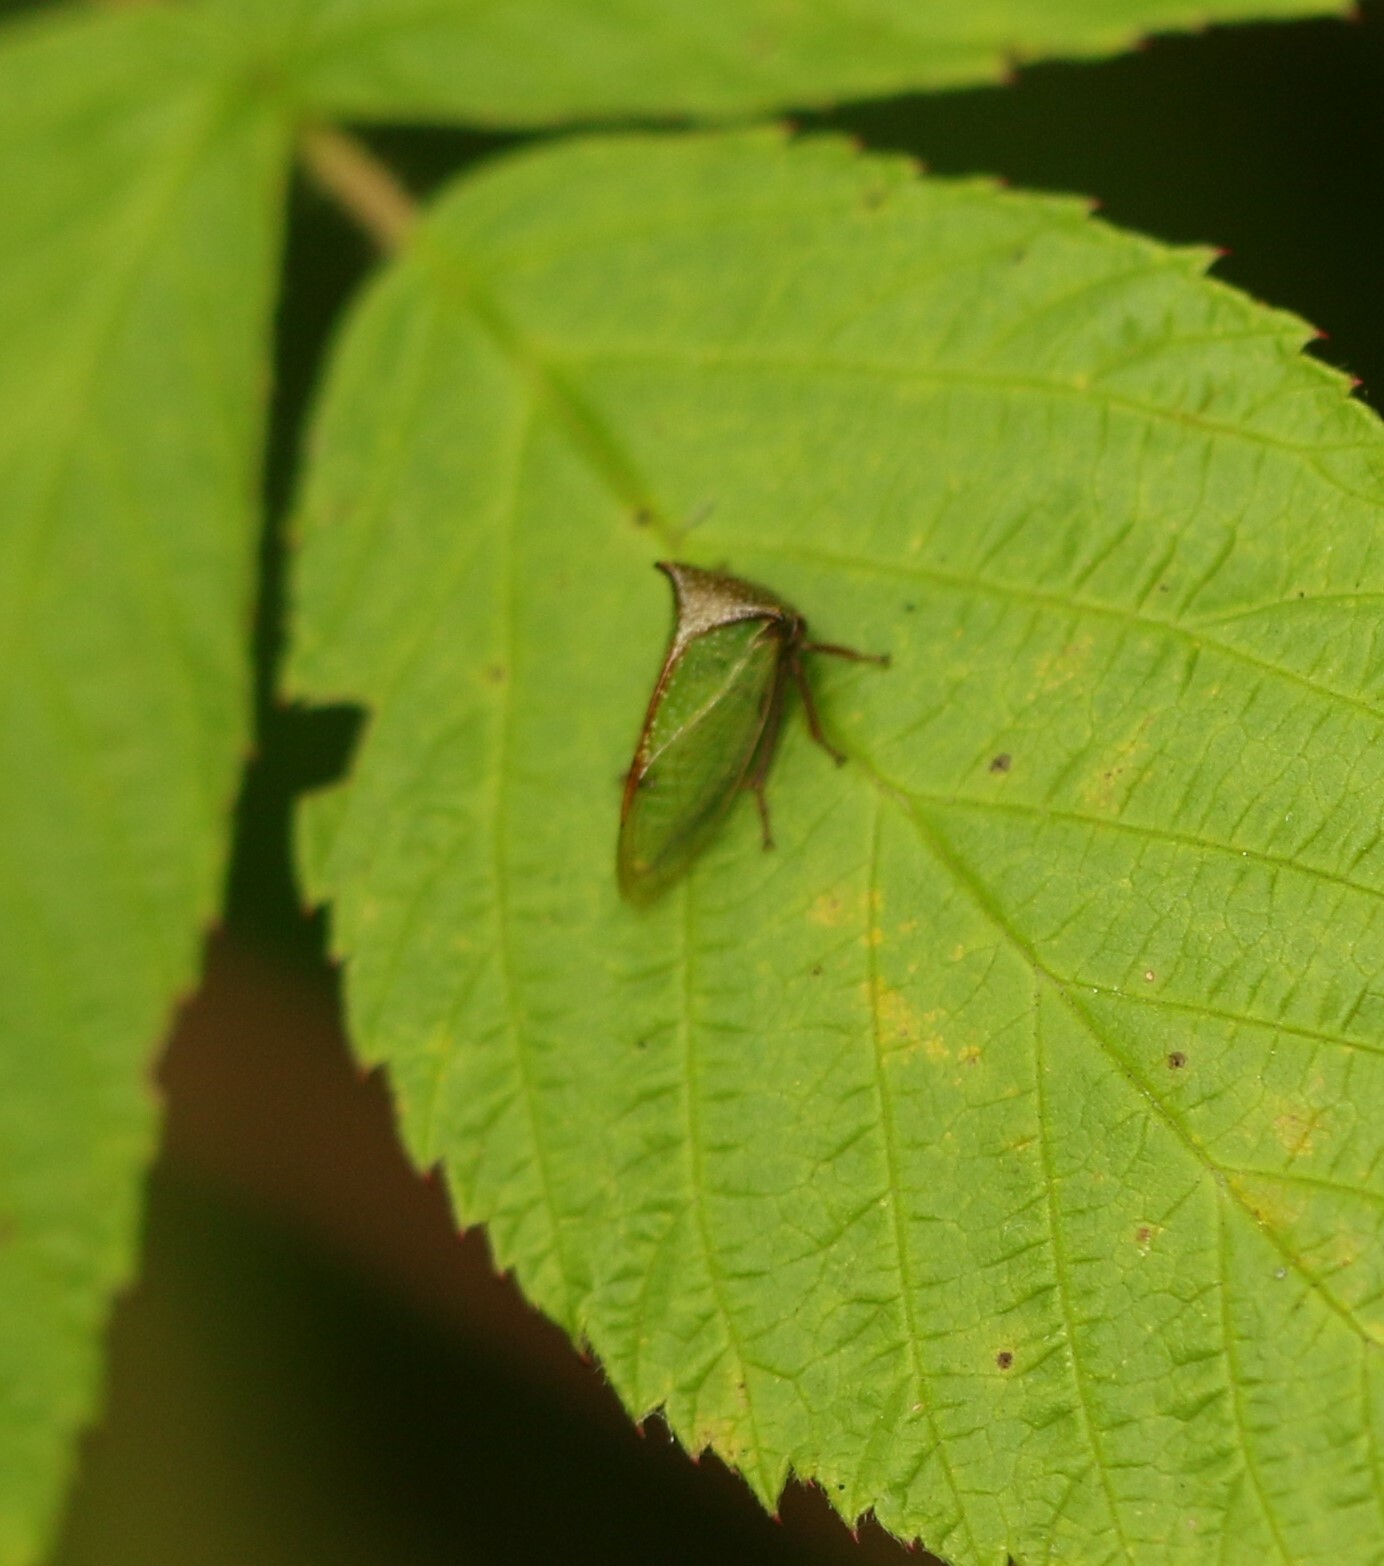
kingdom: Animalia
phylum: Arthropoda
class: Insecta
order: Hemiptera
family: Membracidae
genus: Stictocephala
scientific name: Stictocephala basalis
